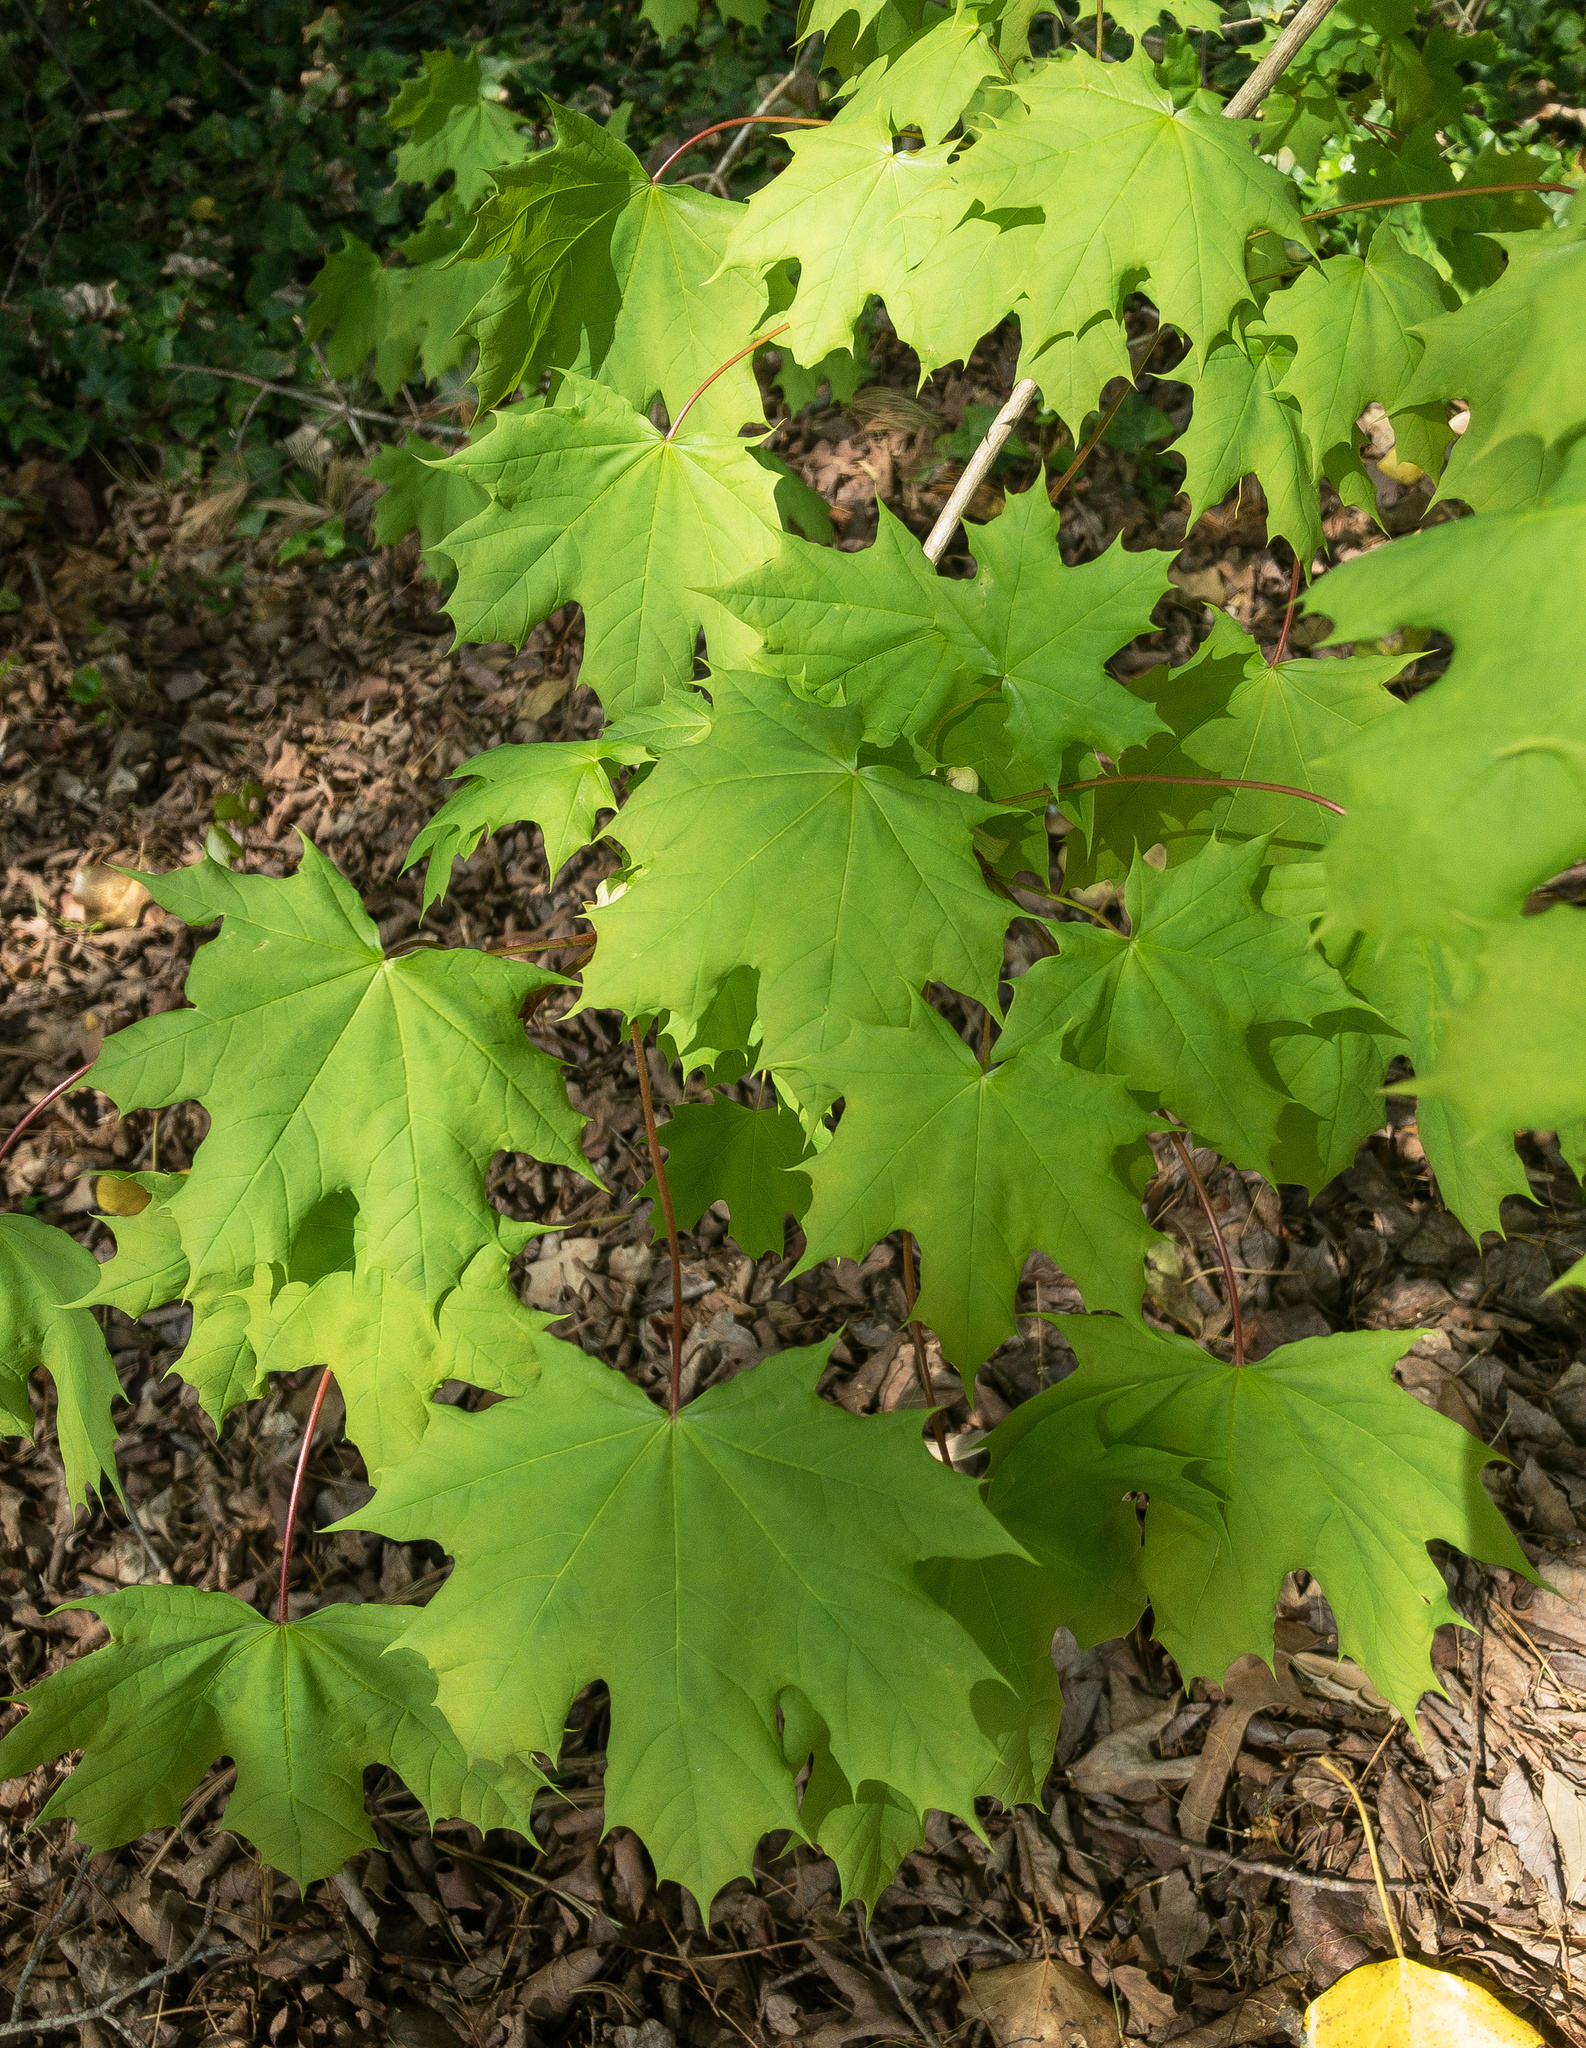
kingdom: Plantae
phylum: Tracheophyta
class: Magnoliopsida
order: Sapindales
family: Sapindaceae
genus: Acer
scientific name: Acer platanoides
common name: Norway maple
